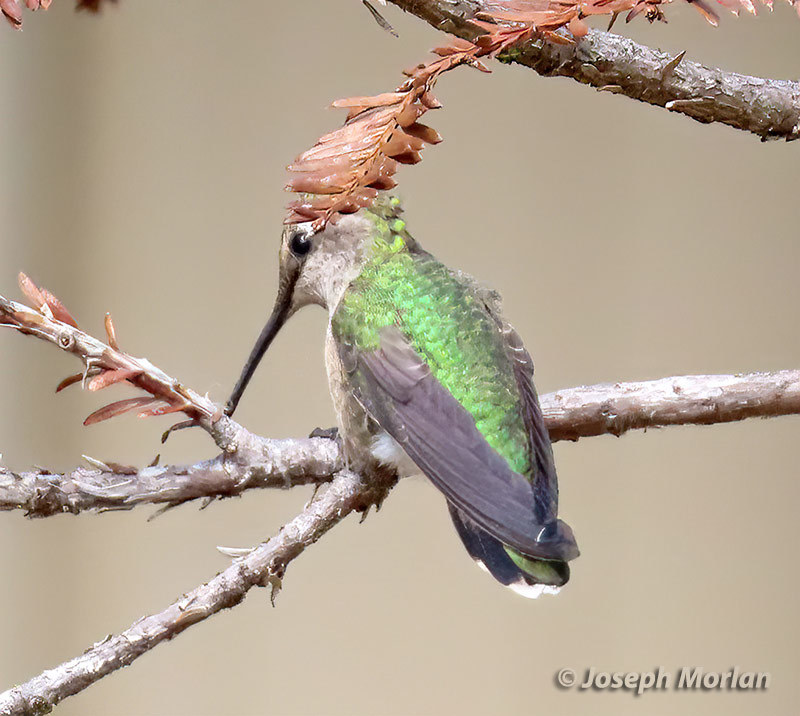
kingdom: Animalia
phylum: Chordata
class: Aves
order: Apodiformes
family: Trochilidae
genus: Calypte
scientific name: Calypte anna
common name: Anna's hummingbird
